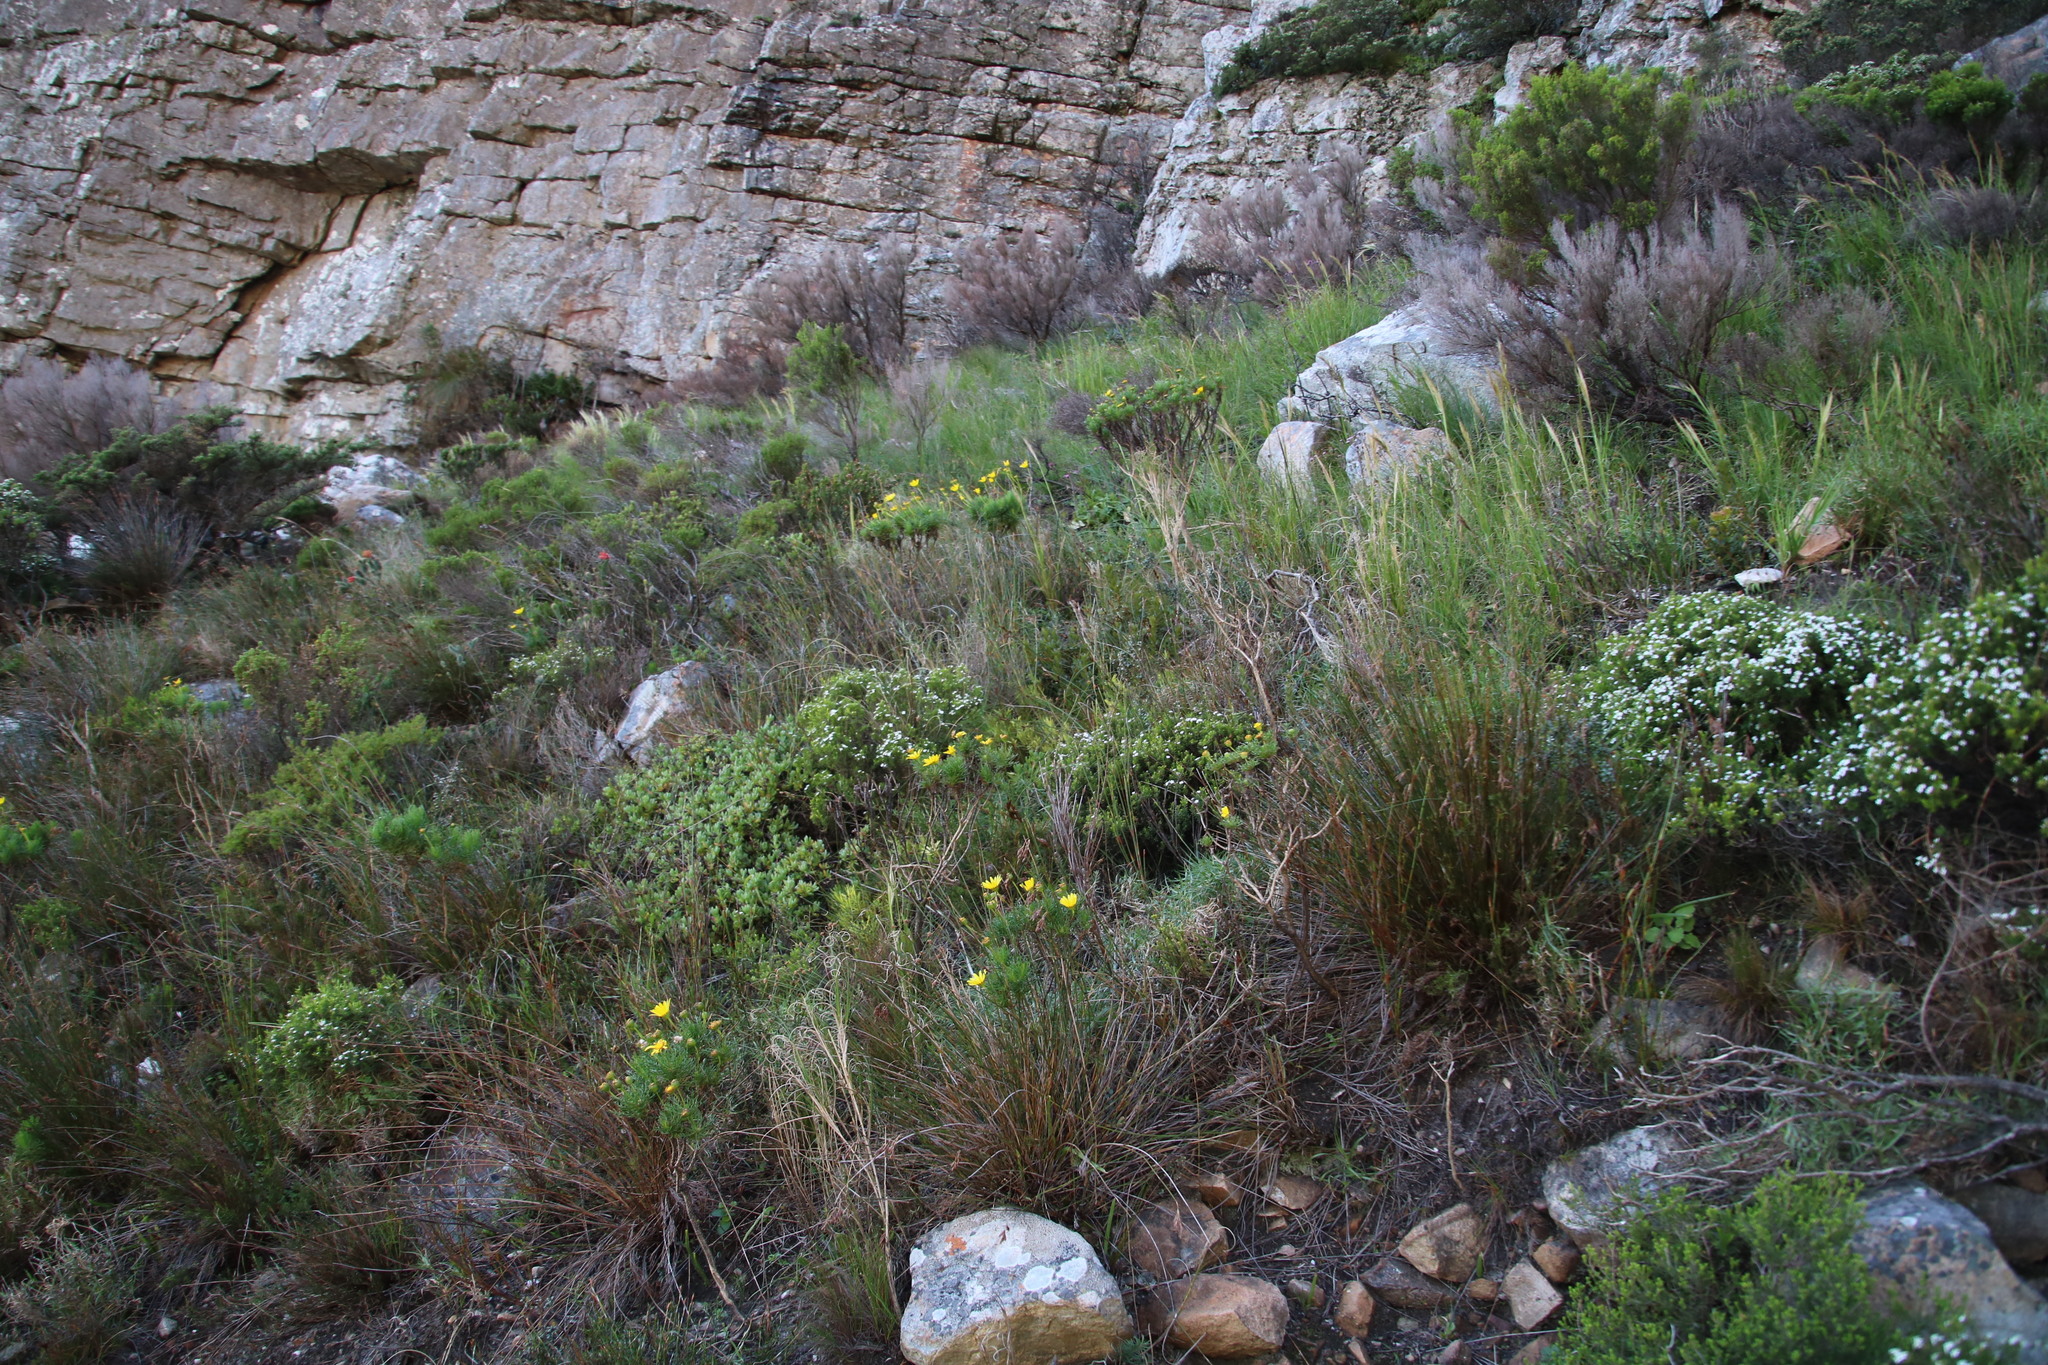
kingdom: Plantae
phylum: Tracheophyta
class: Magnoliopsida
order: Asterales
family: Asteraceae
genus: Euryops
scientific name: Euryops abrotanifolius
